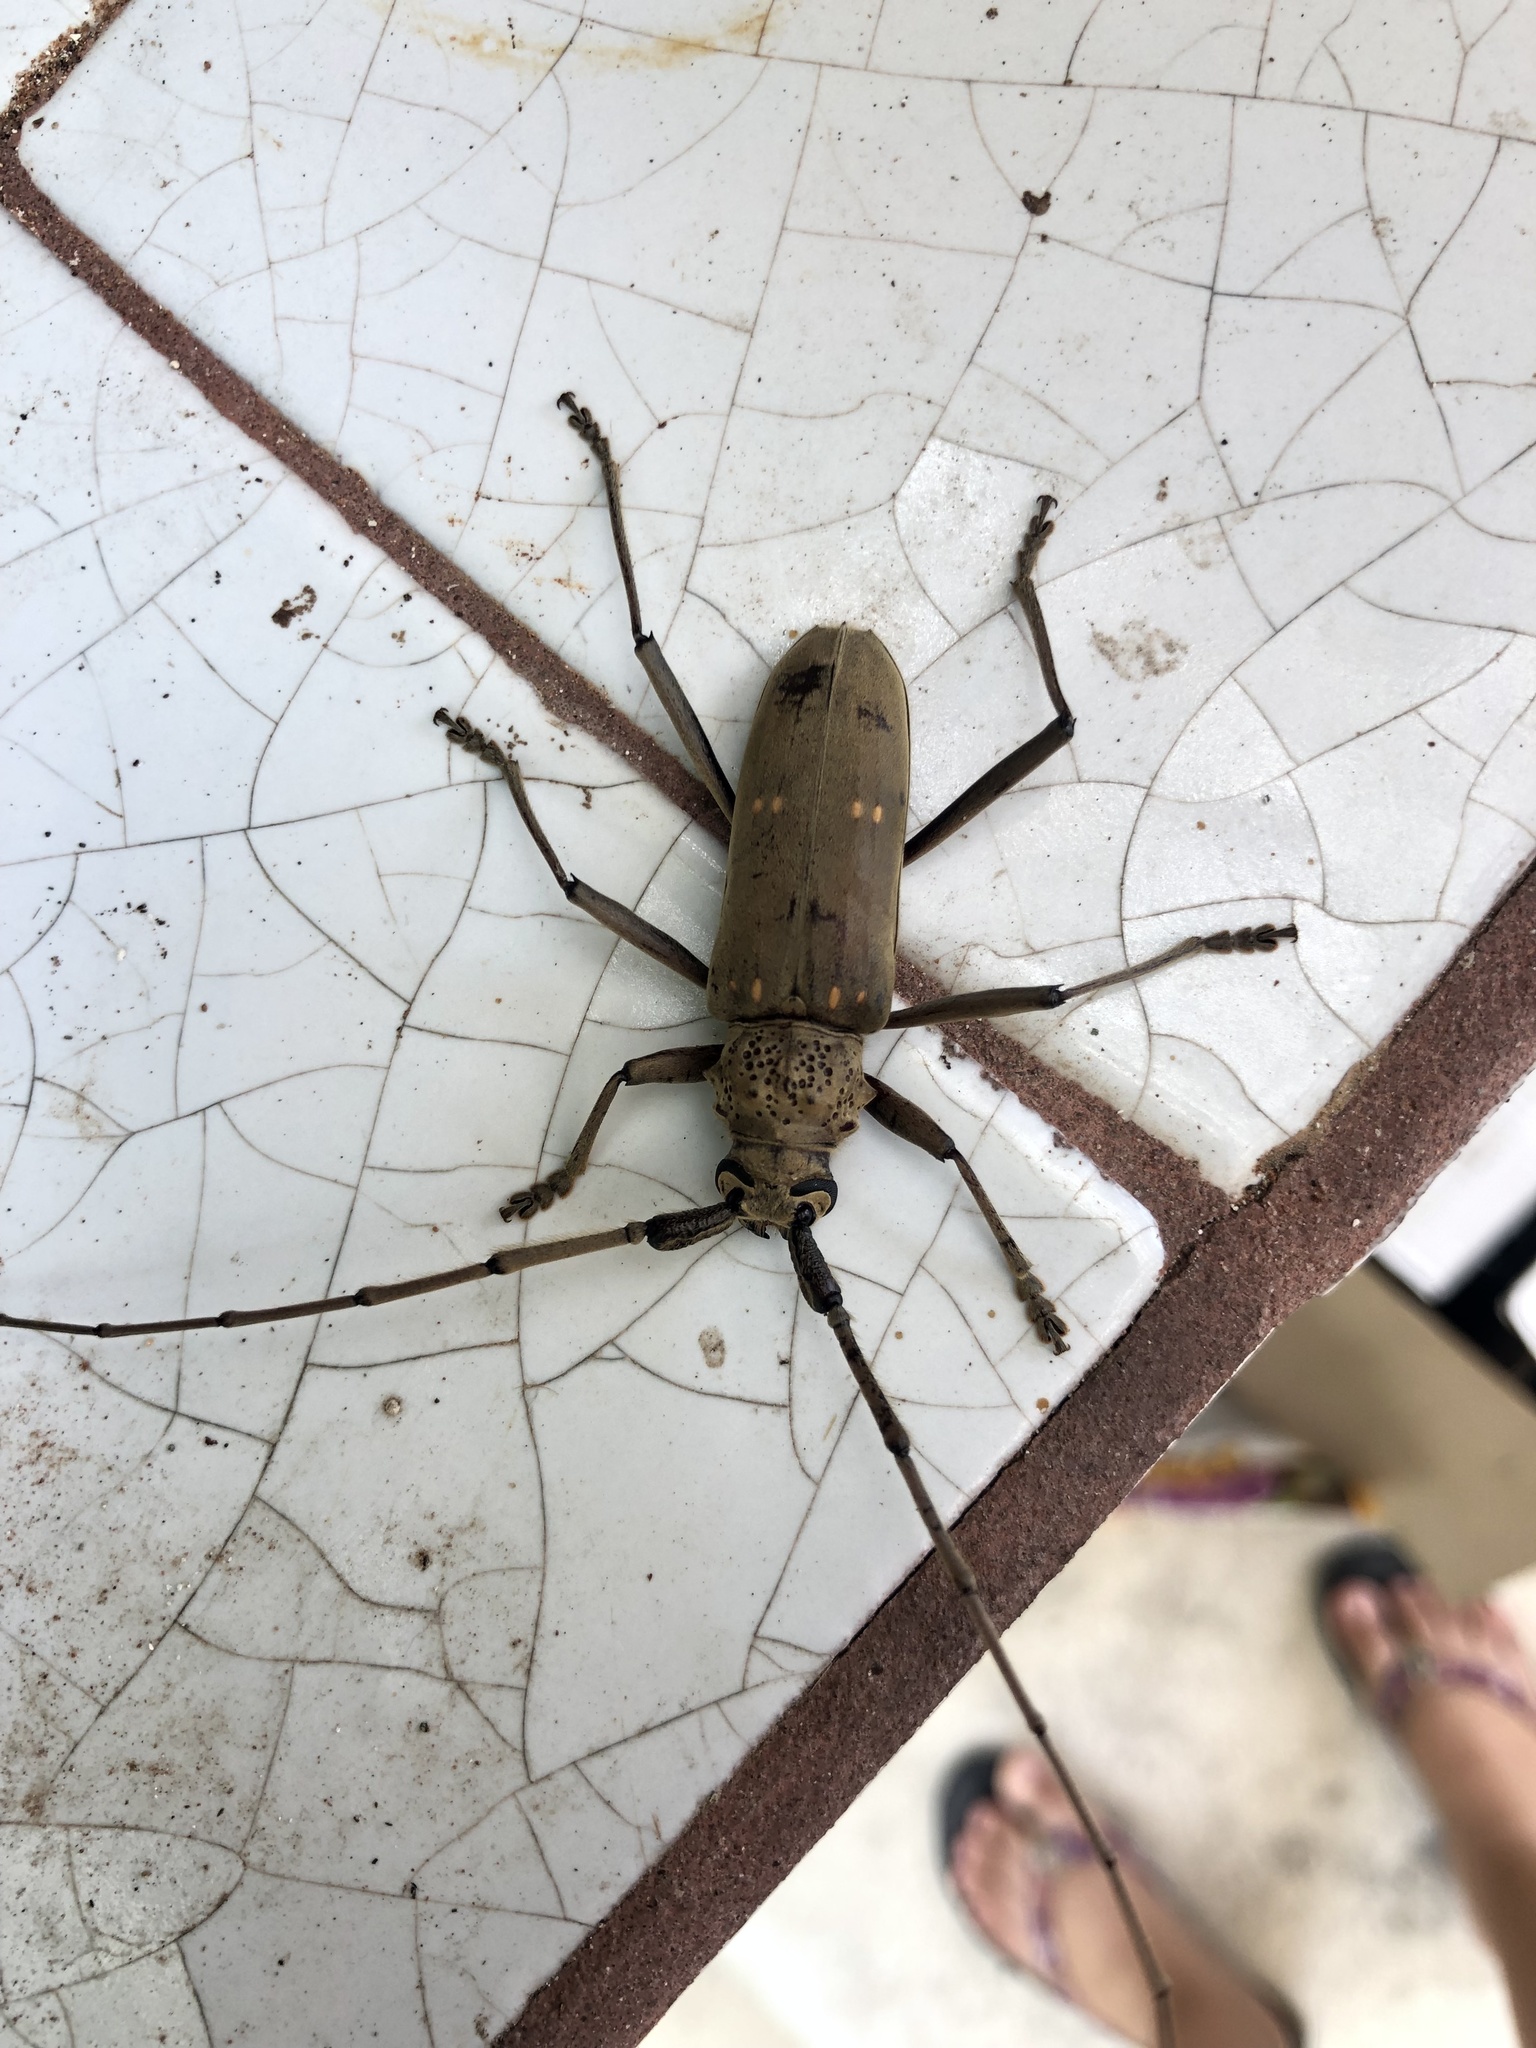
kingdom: Animalia
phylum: Arthropoda
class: Insecta
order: Coleoptera
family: Cerambycidae
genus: Susuacanga
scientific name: Susuacanga stigmatica
